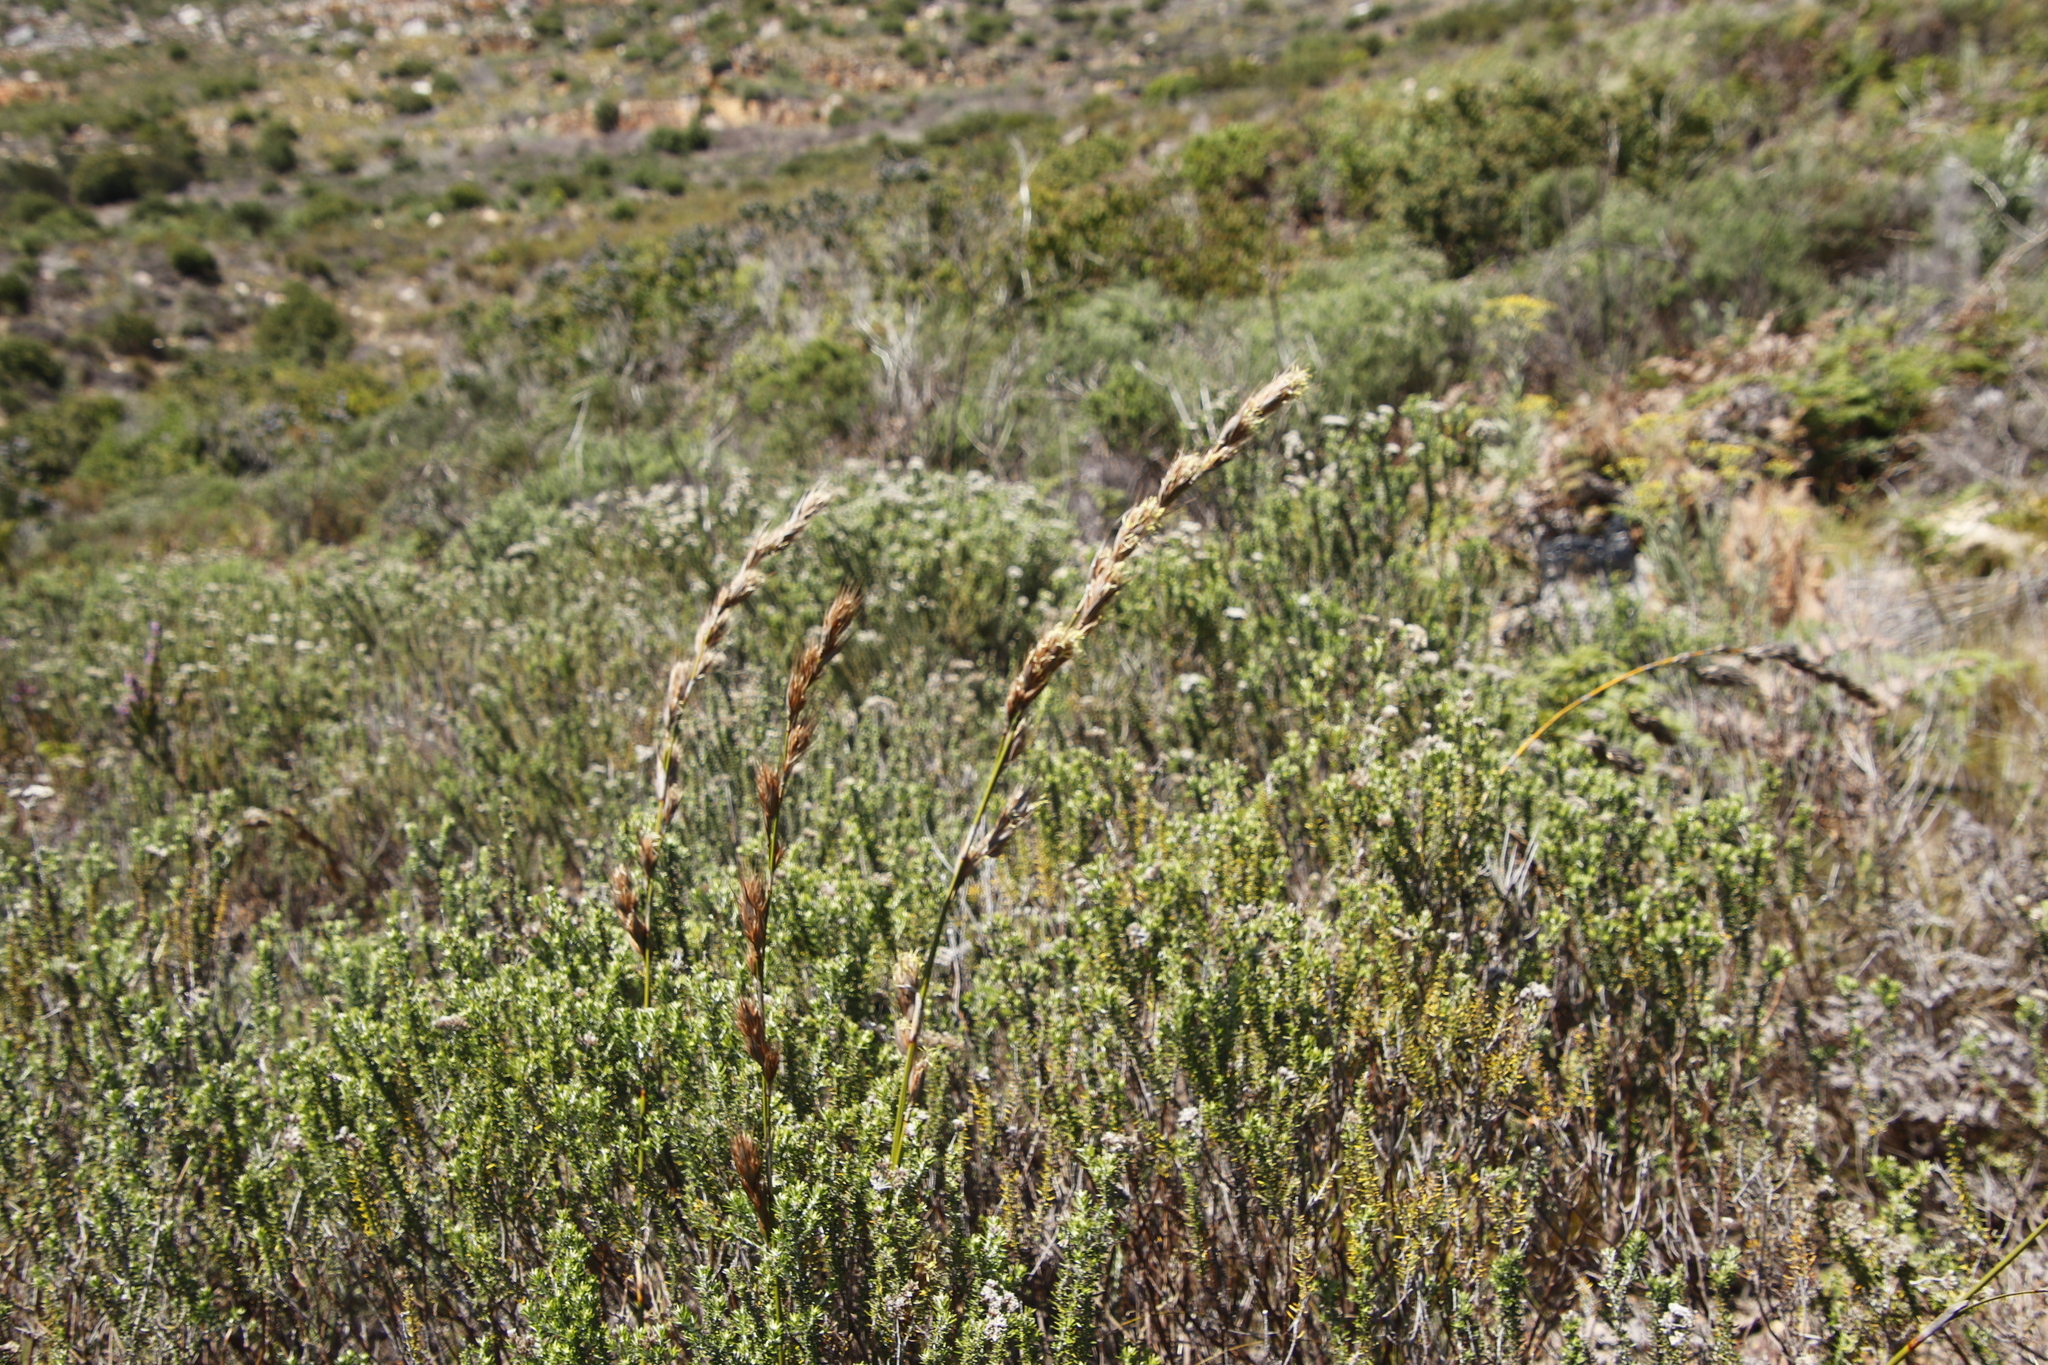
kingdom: Plantae
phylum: Tracheophyta
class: Liliopsida
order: Poales
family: Cyperaceae
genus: Tetraria
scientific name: Tetraria bromoides
